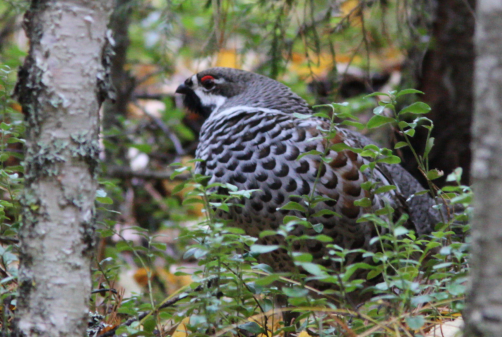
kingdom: Animalia
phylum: Chordata
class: Aves
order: Galliformes
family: Phasianidae
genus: Tetrastes
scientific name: Tetrastes bonasia
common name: Hazel grouse
